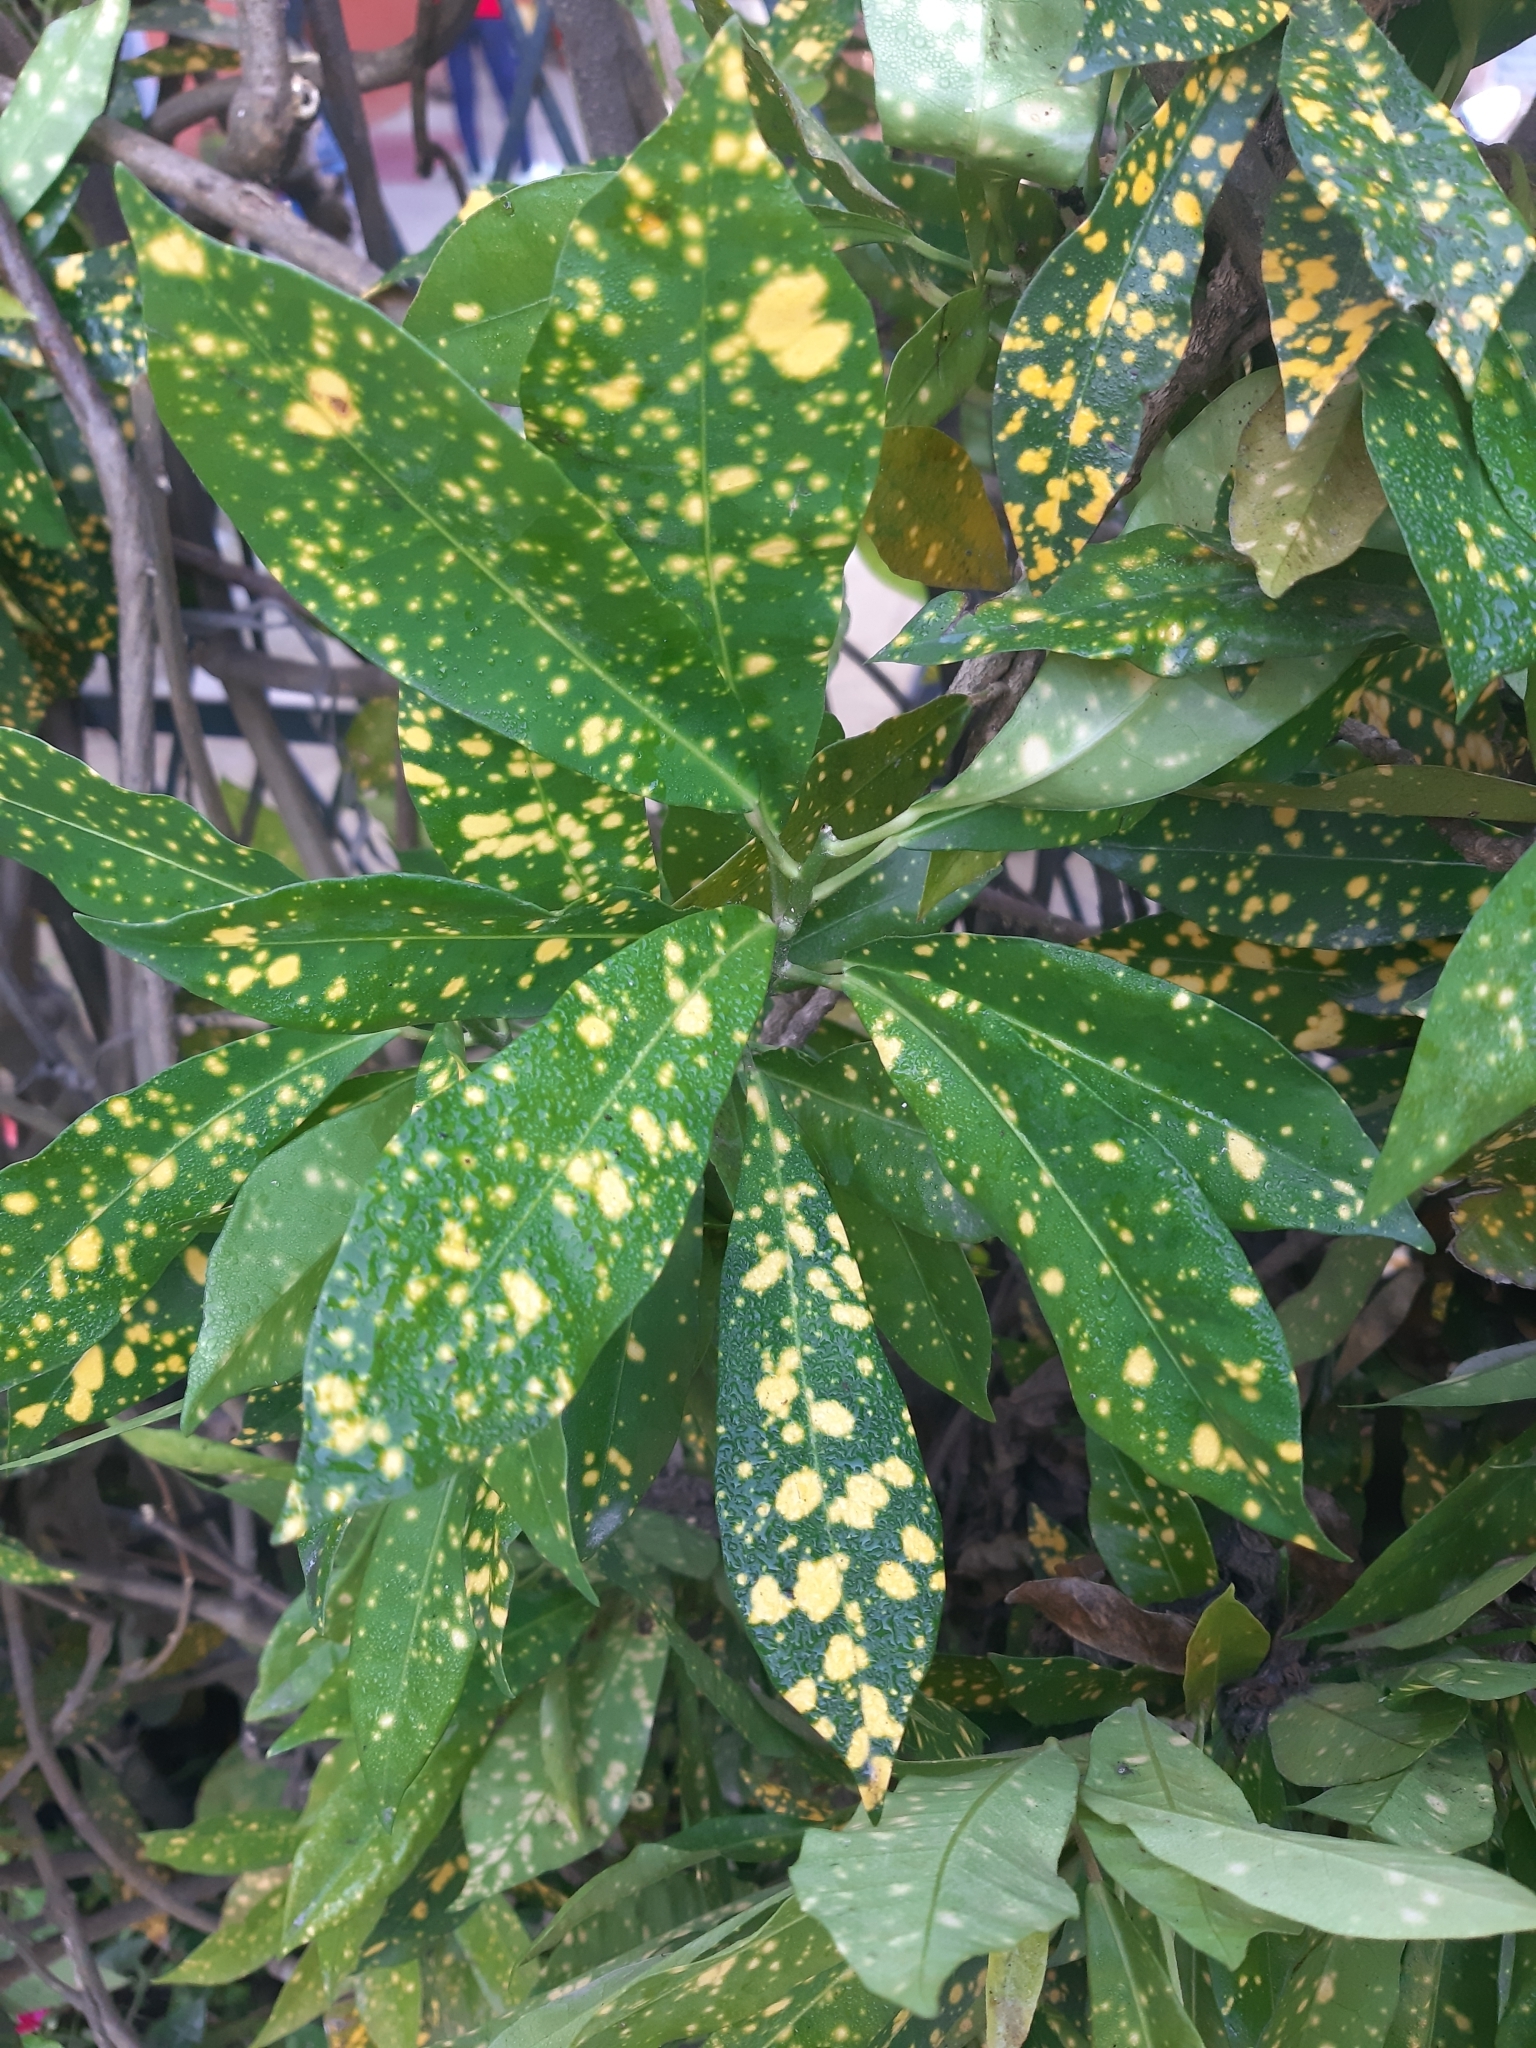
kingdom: Plantae
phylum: Tracheophyta
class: Magnoliopsida
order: Garryales
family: Garryaceae
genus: Aucuba
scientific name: Aucuba japonica
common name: Spotted-laurel
